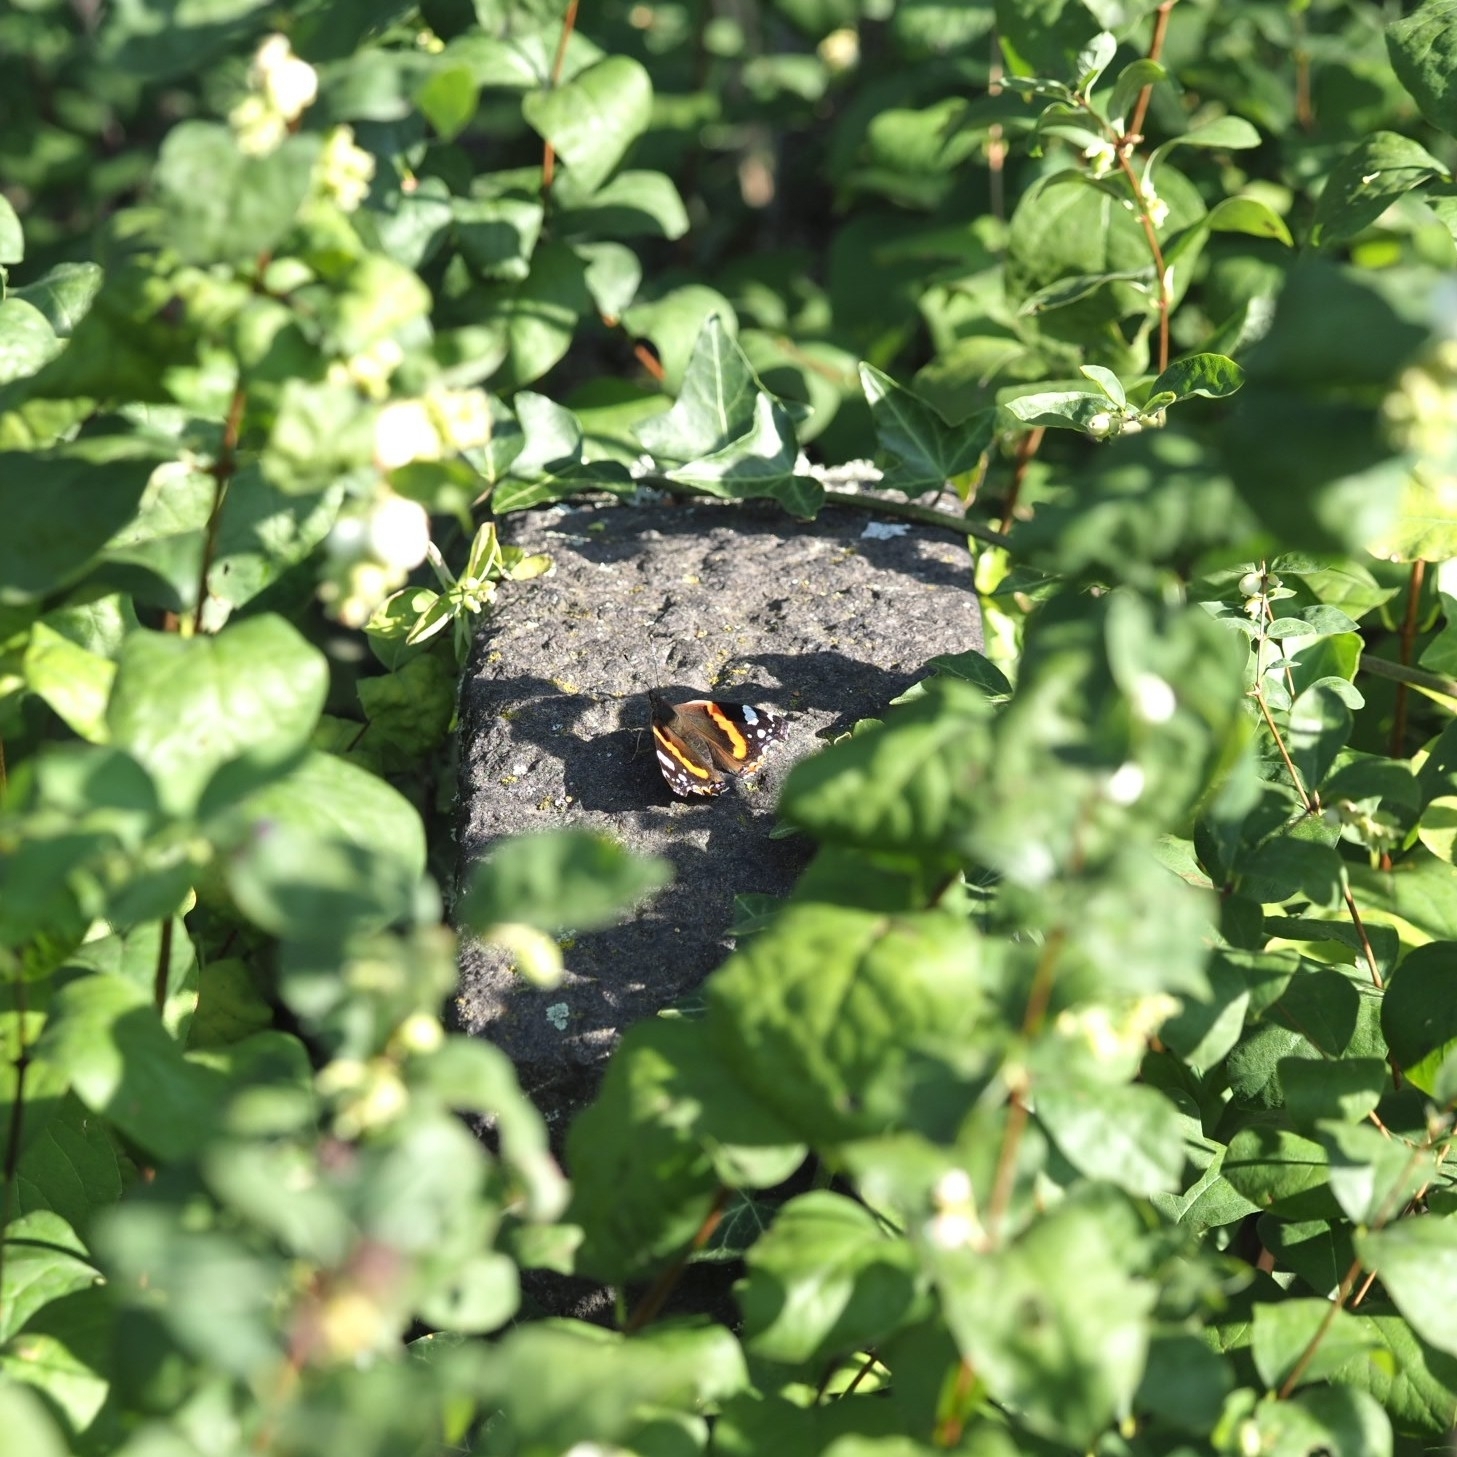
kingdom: Animalia
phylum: Arthropoda
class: Insecta
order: Lepidoptera
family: Nymphalidae
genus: Vanessa
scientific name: Vanessa atalanta
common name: Red admiral
